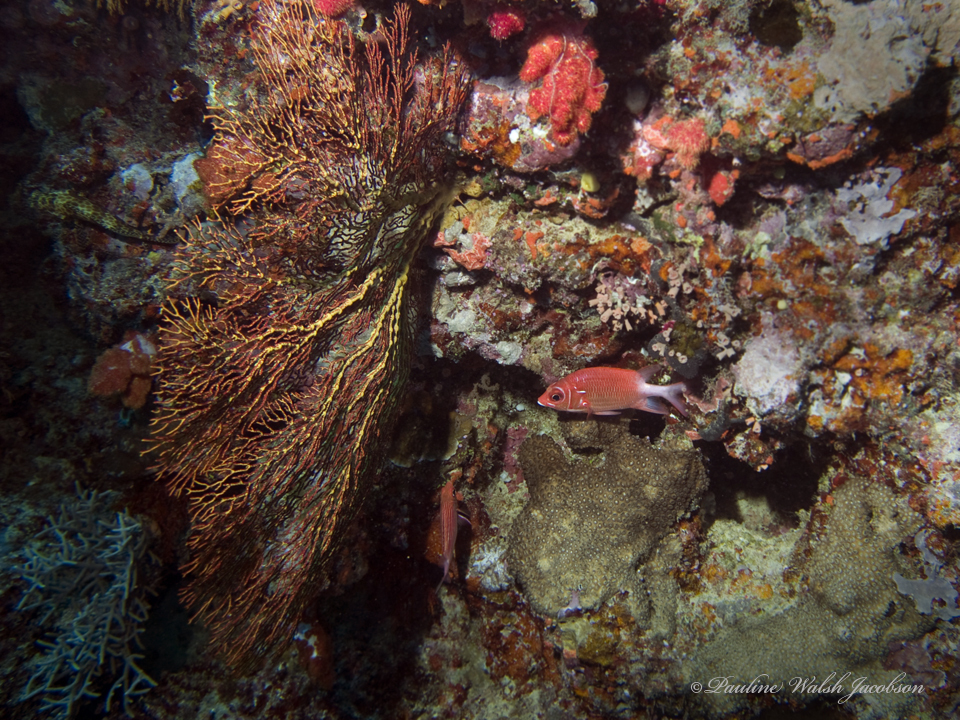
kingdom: Animalia
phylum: Chordata
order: Beryciformes
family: Holocentridae
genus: Sargocentron
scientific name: Sargocentron caudimaculatum
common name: Fanfin soldier
